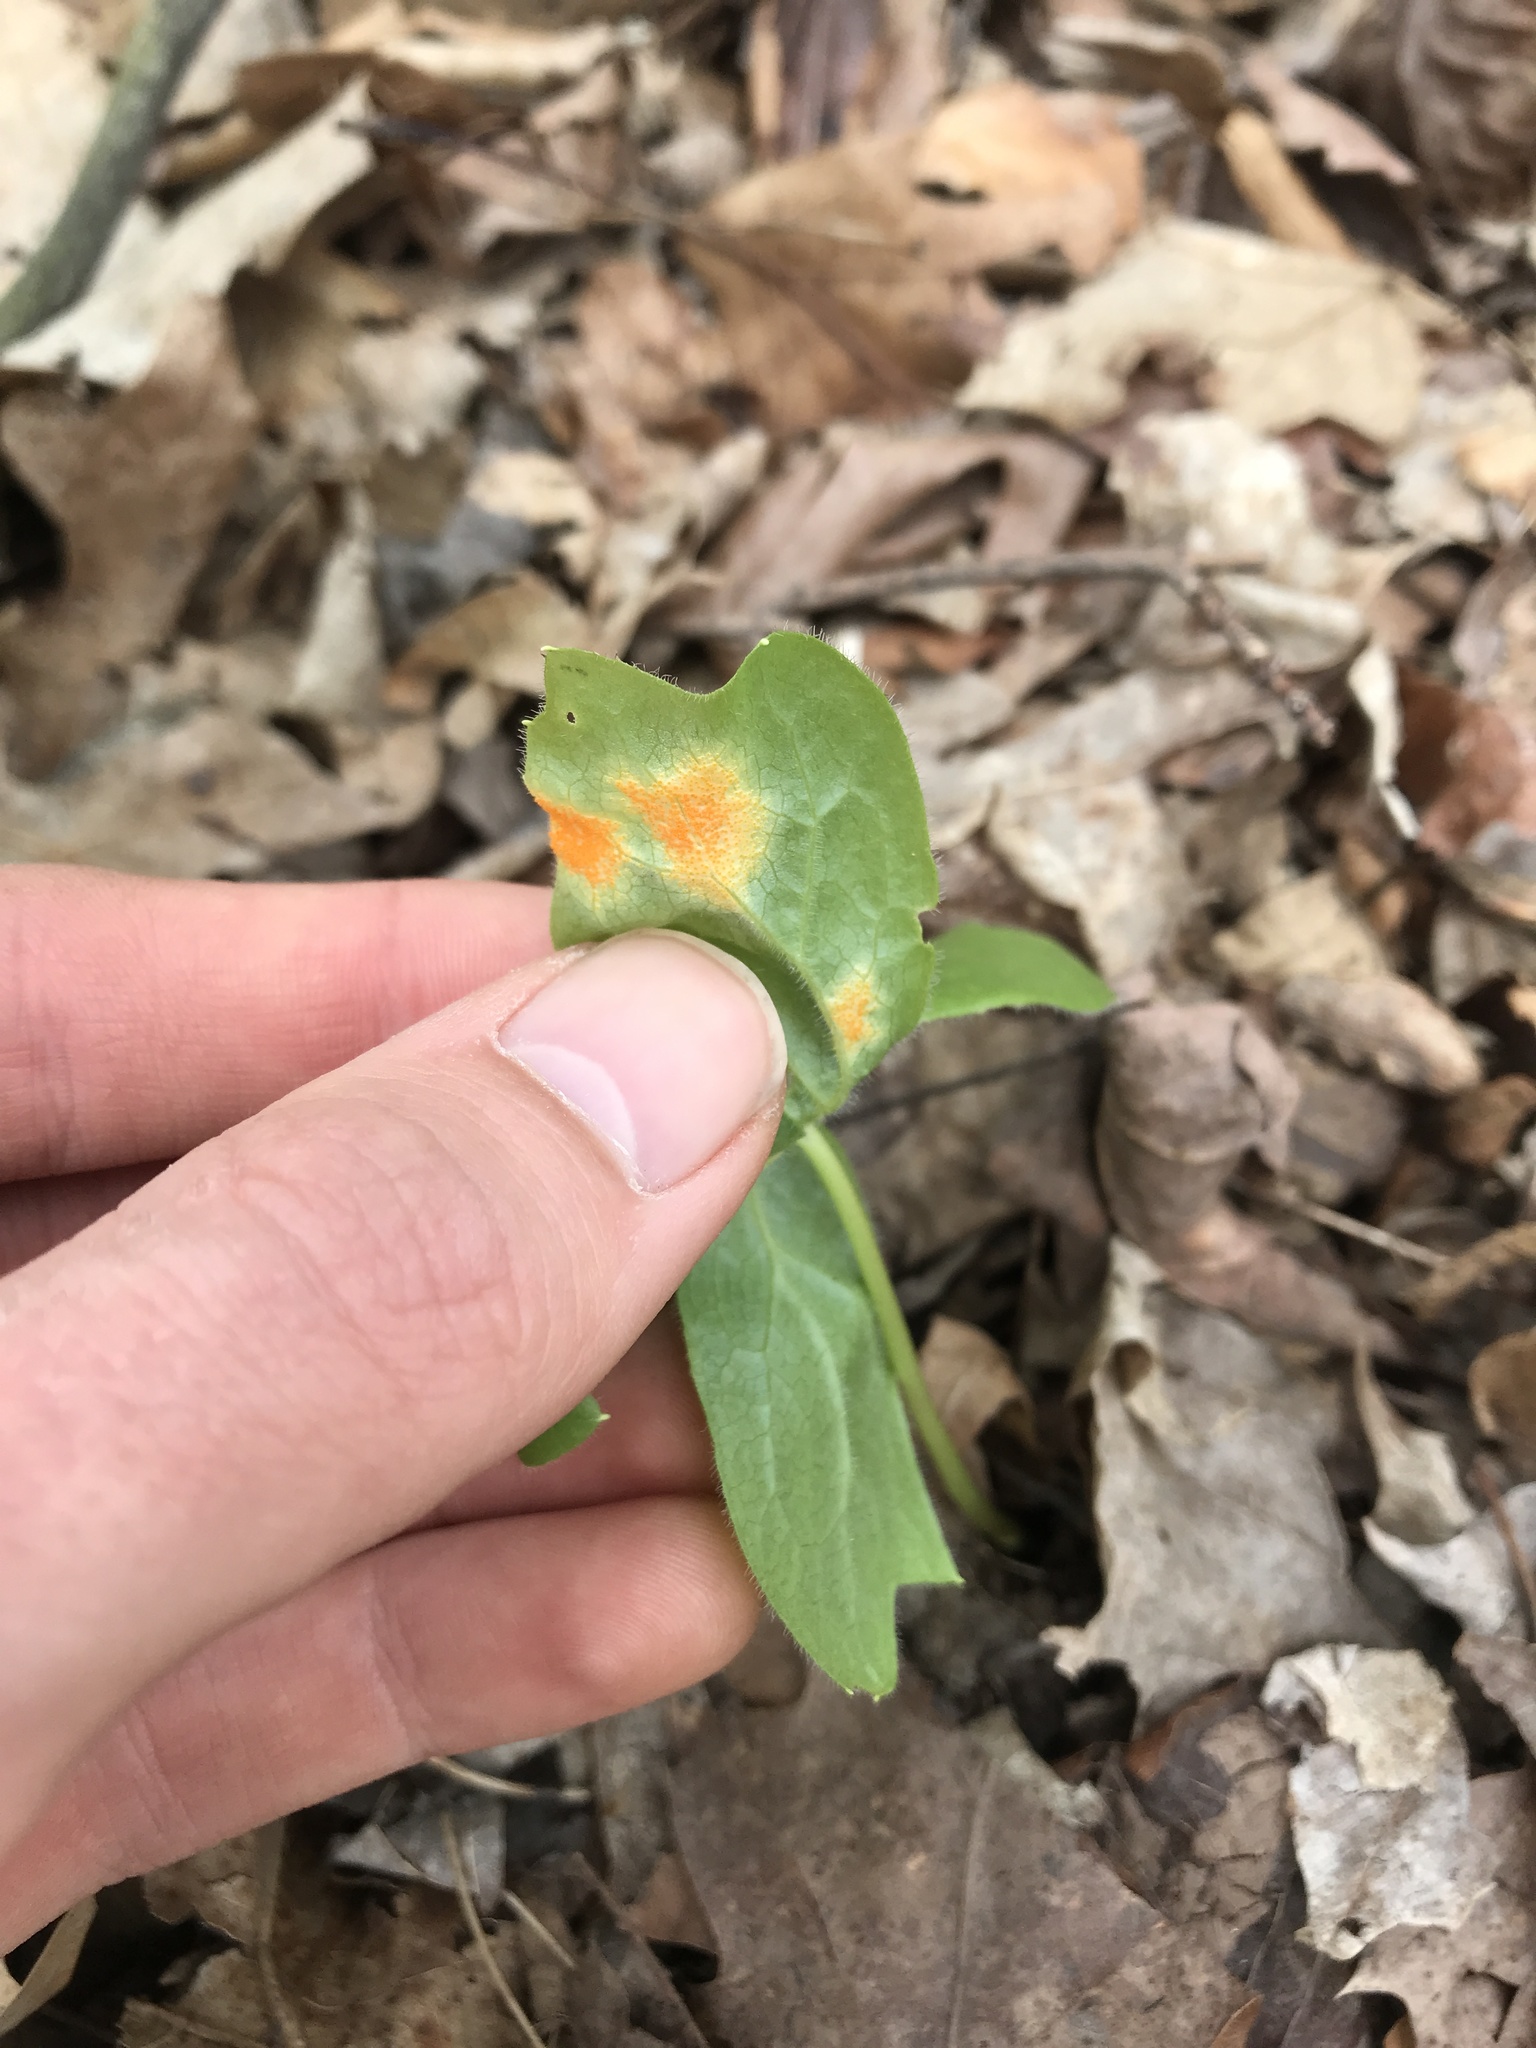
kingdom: Fungi
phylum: Basidiomycota
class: Pucciniomycetes
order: Pucciniales
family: Pucciniaceae
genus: Puccinia
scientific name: Puccinia podophylli
